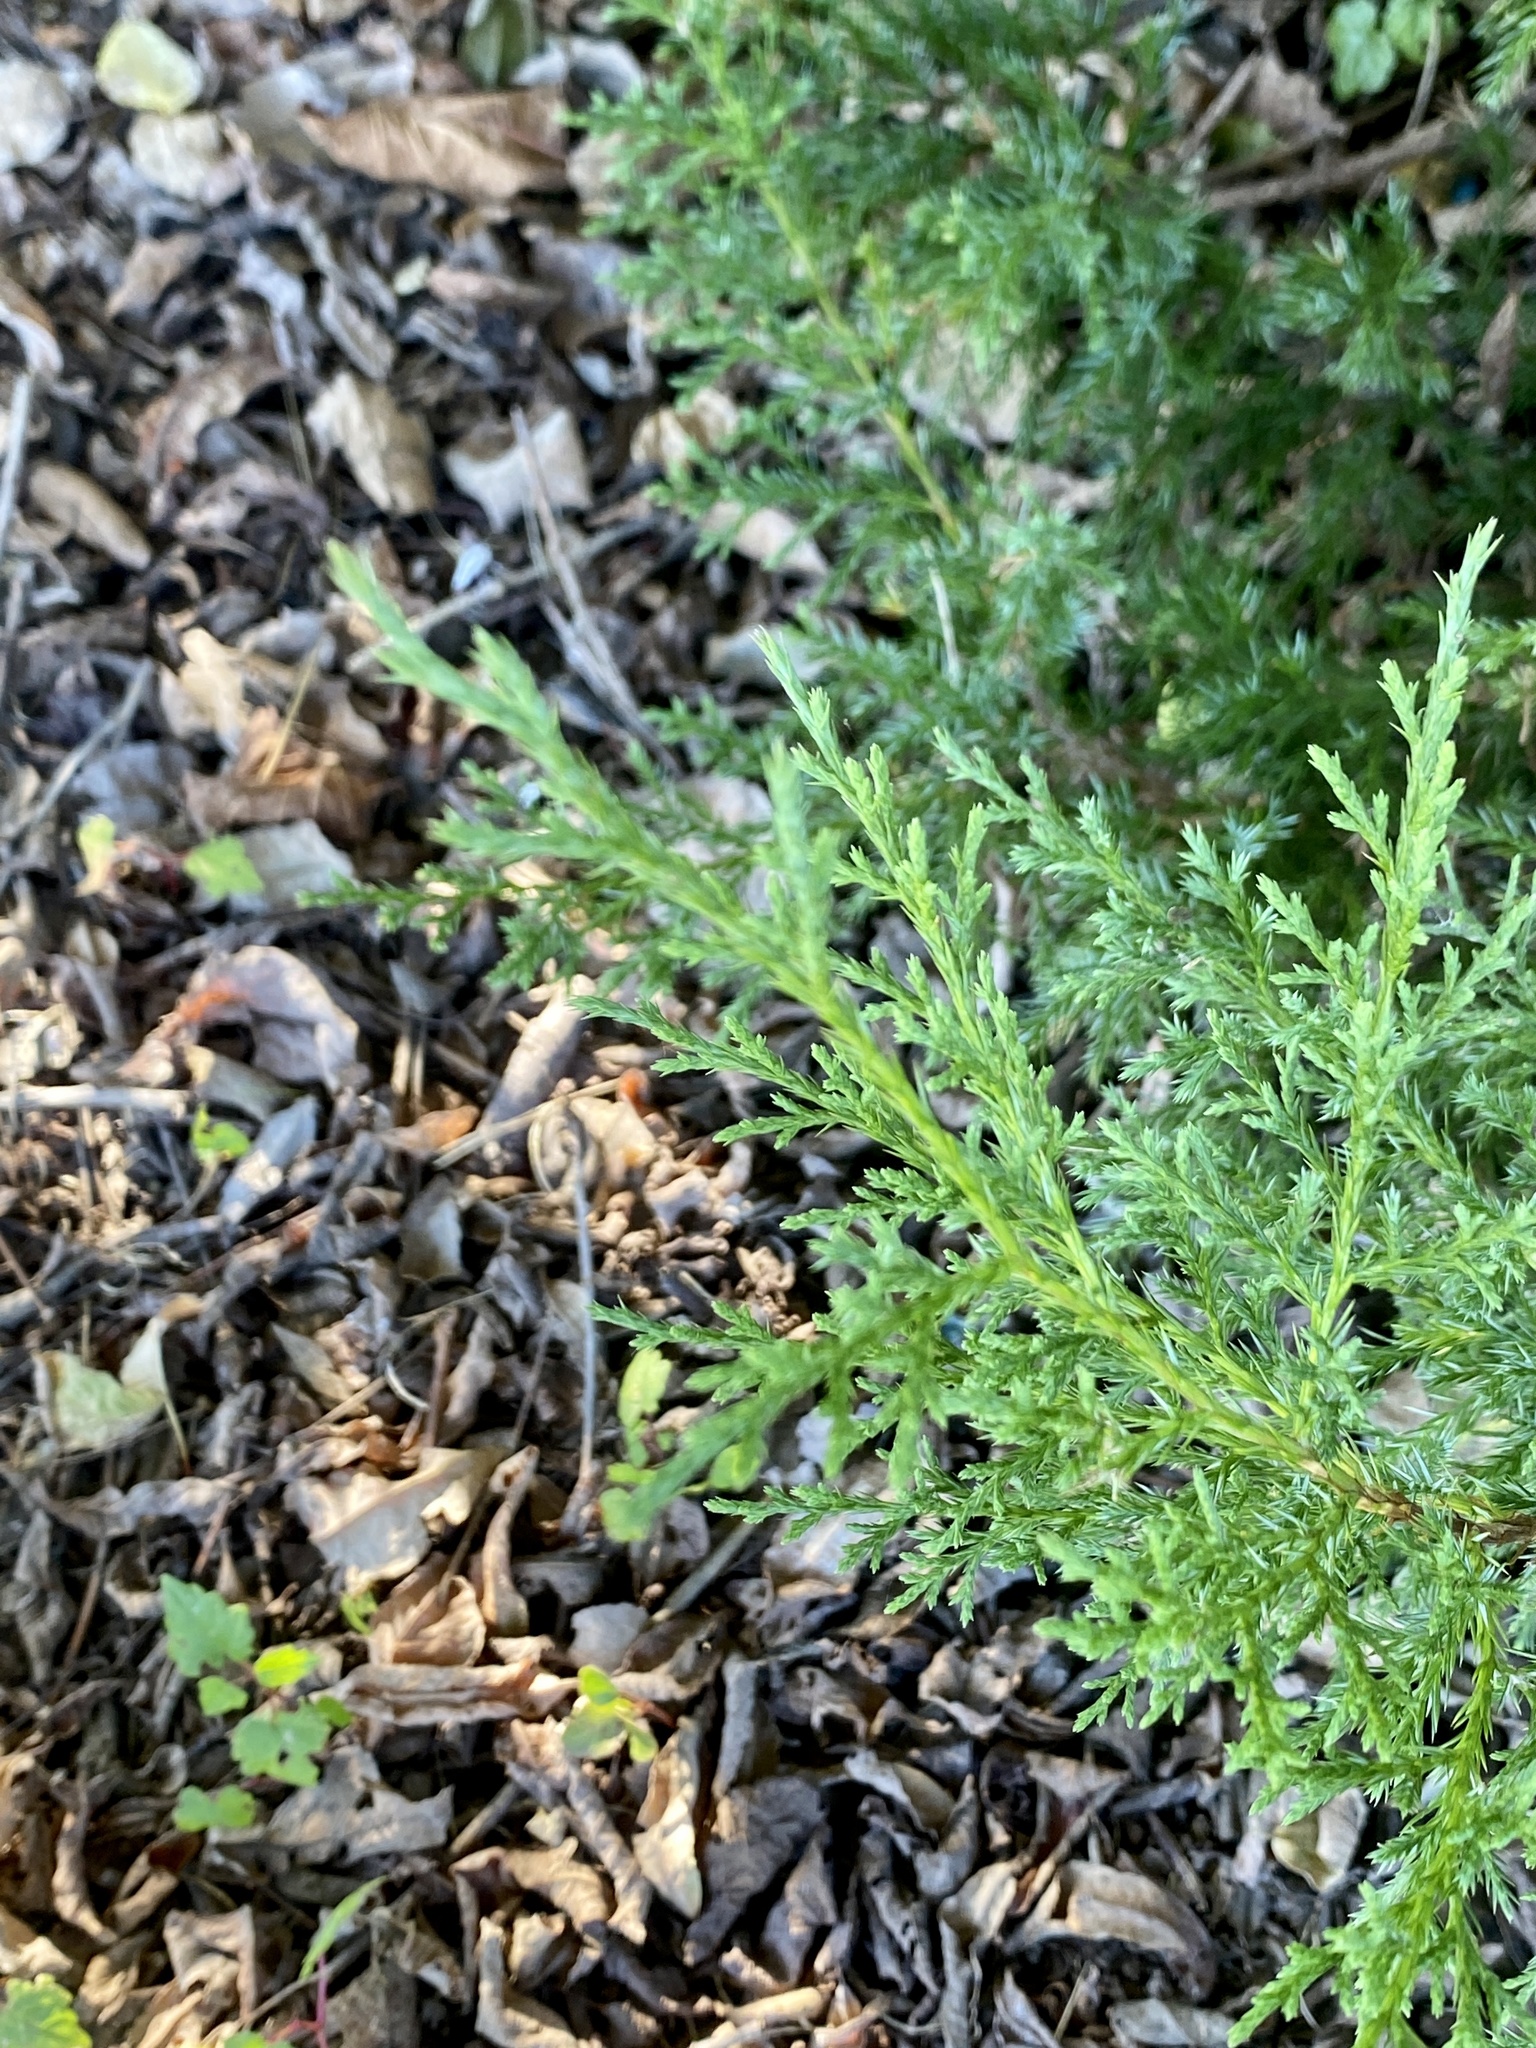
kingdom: Plantae
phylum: Tracheophyta
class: Pinopsida
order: Pinales
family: Cupressaceae
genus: Juniperus
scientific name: Juniperus virginiana
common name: Red juniper
